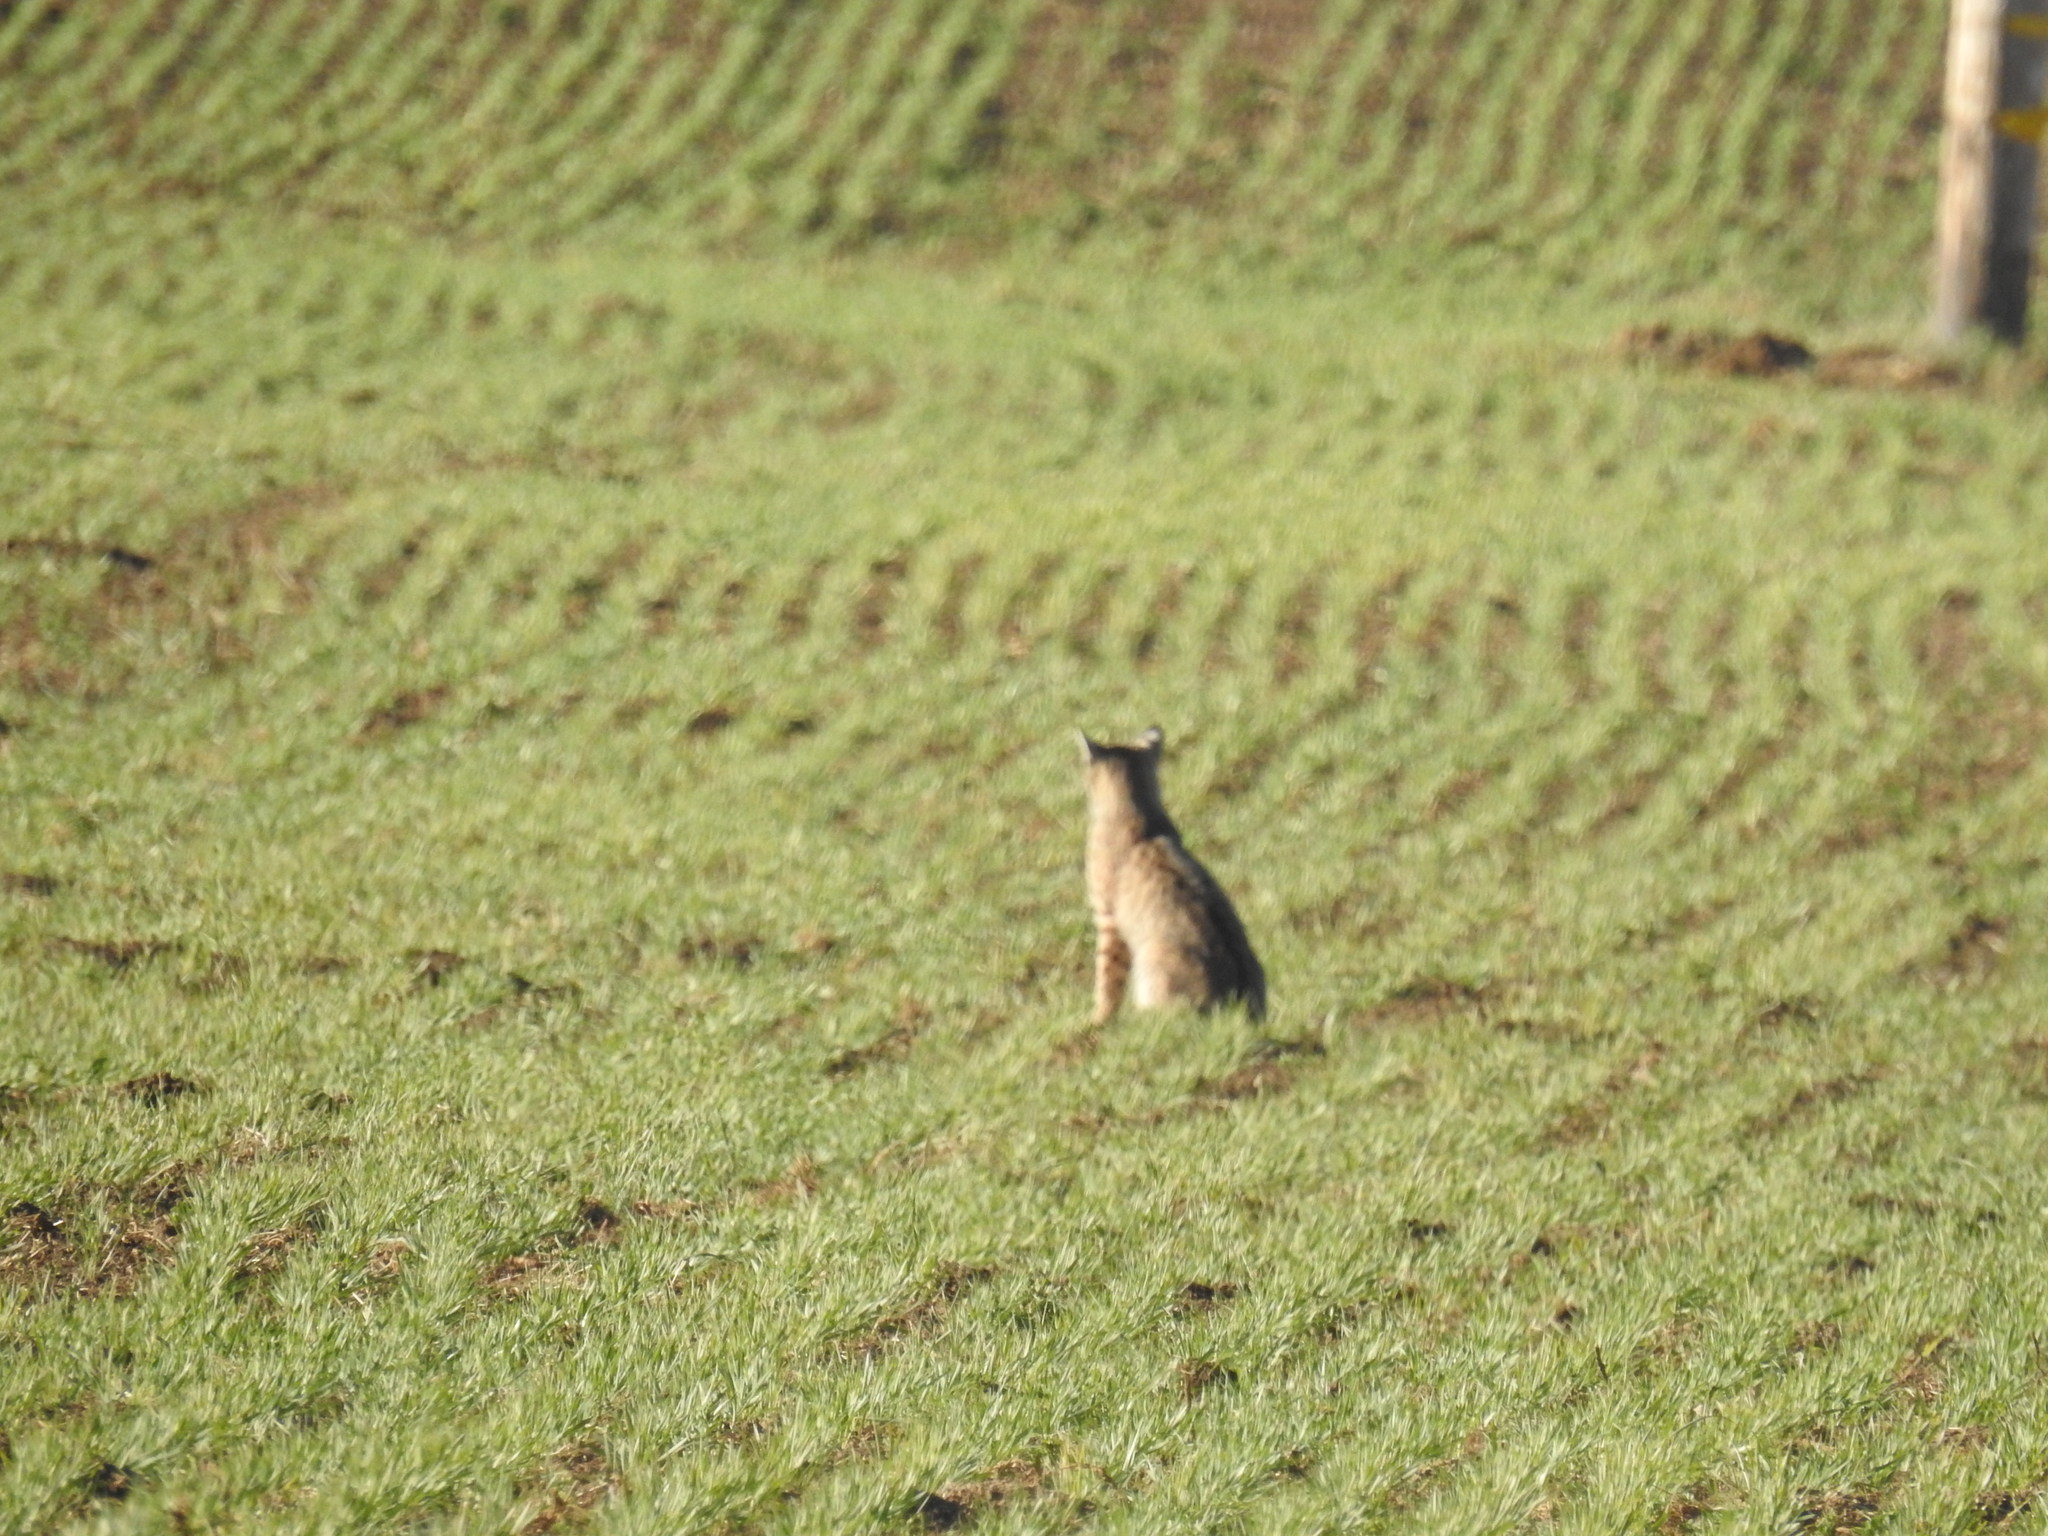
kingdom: Animalia
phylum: Chordata
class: Mammalia
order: Carnivora
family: Felidae
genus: Lynx
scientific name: Lynx rufus
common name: Bobcat
